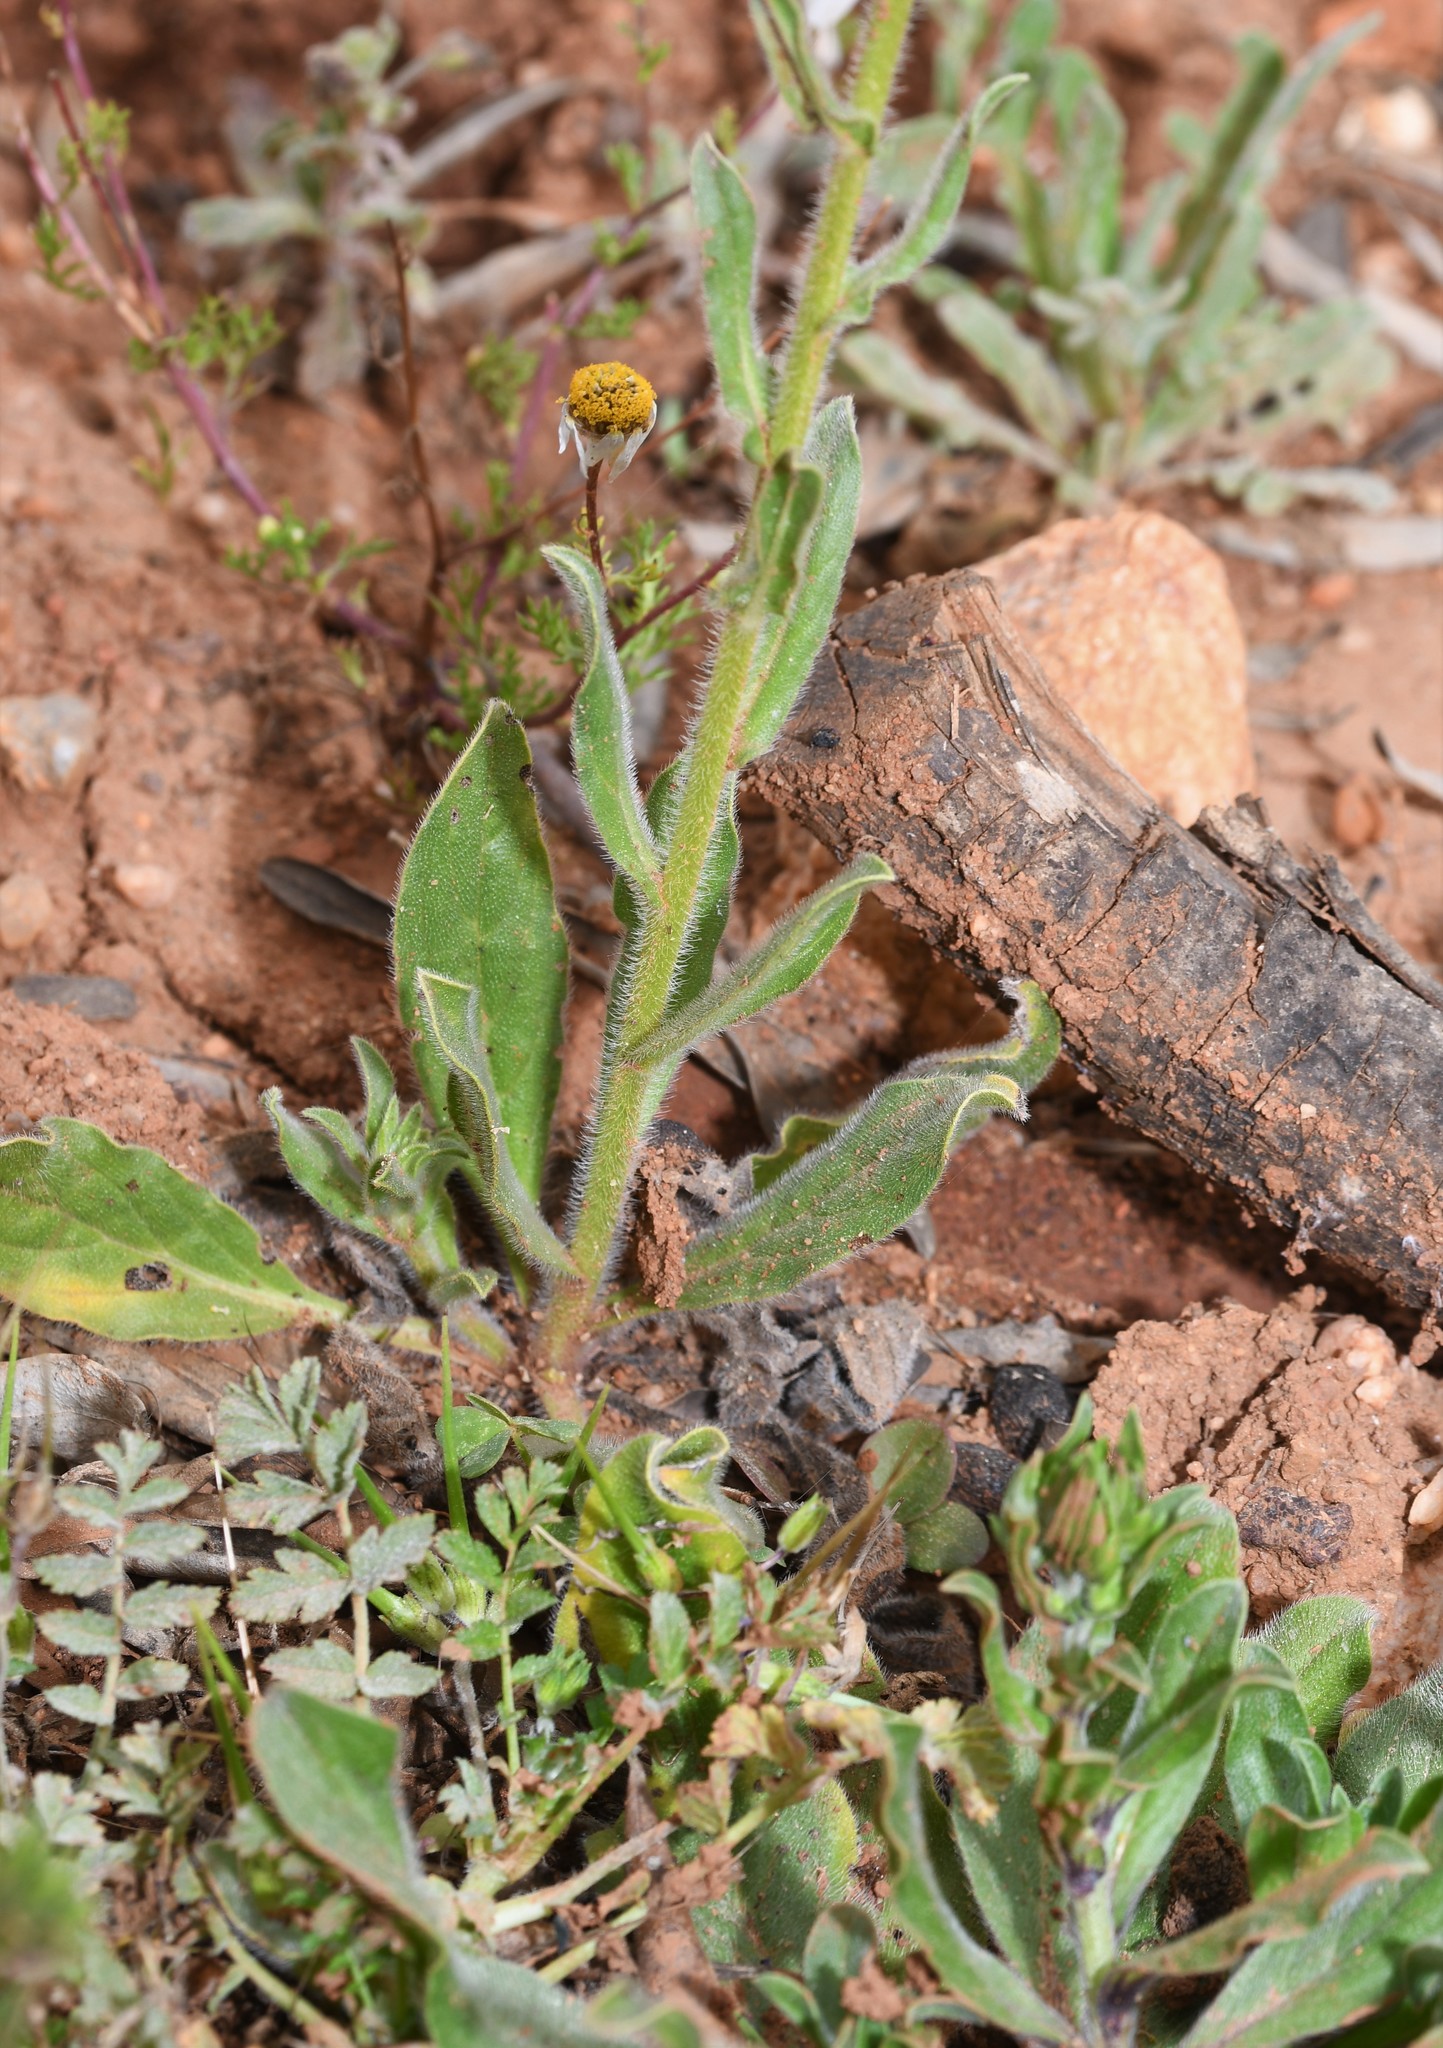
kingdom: Plantae
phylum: Tracheophyta
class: Magnoliopsida
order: Boraginales
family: Boraginaceae
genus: Echium
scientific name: Echium plantagineum
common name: Purple viper's-bugloss
